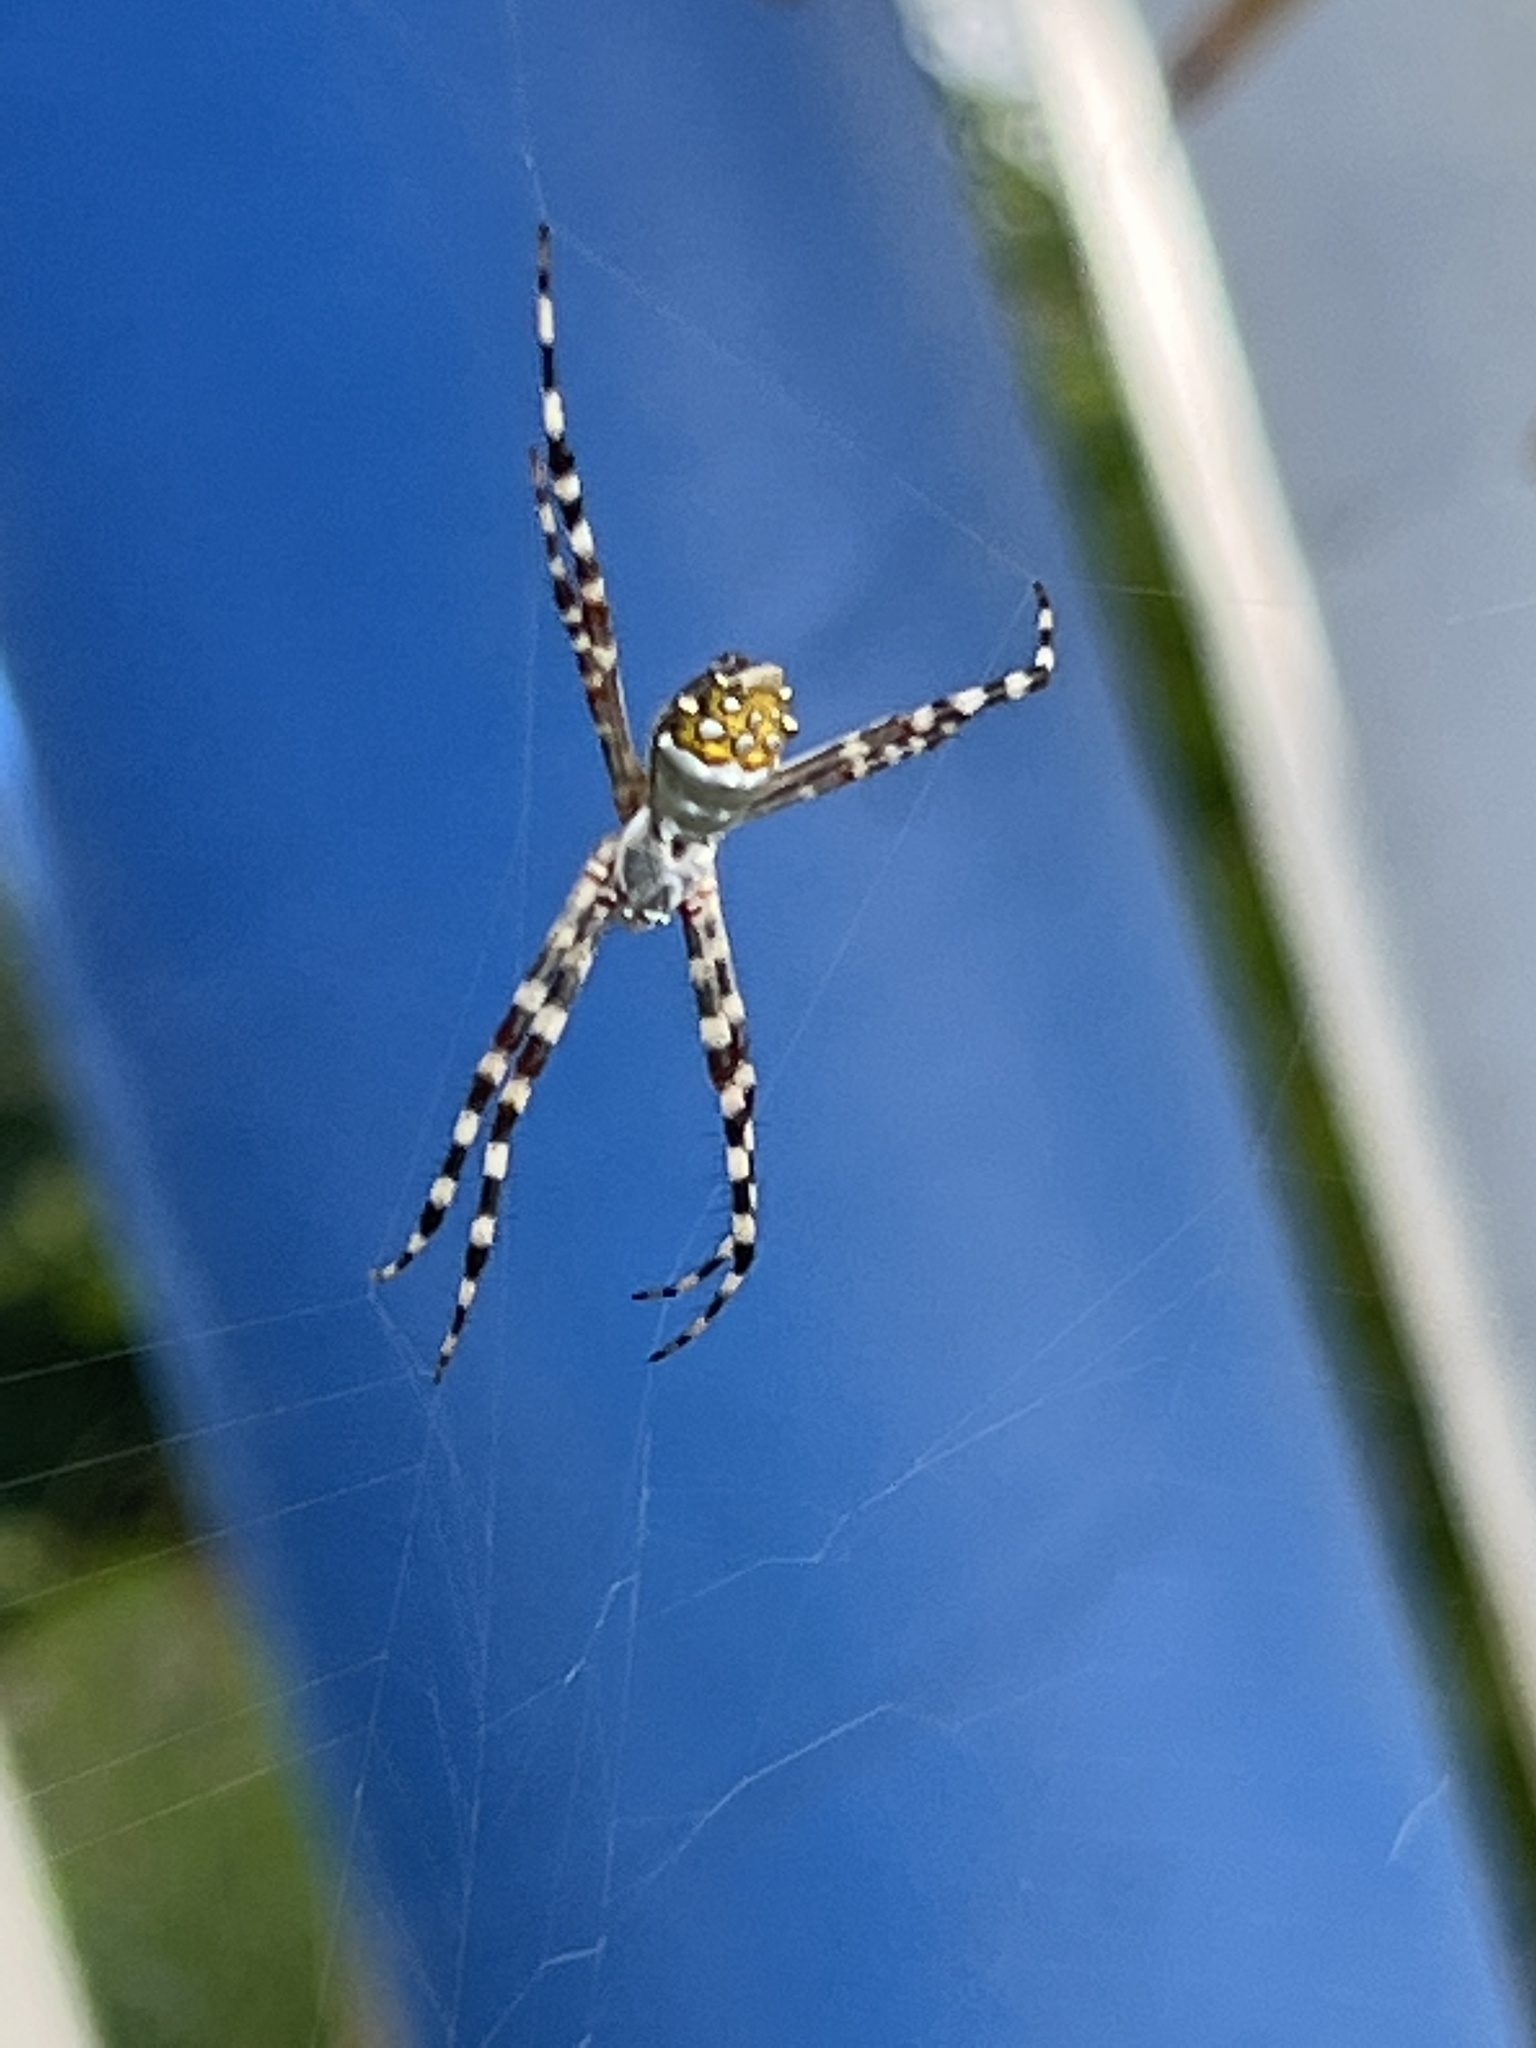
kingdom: Animalia
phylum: Arthropoda
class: Arachnida
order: Araneae
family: Araneidae
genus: Argiope
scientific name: Argiope argentata
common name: Orb weavers
